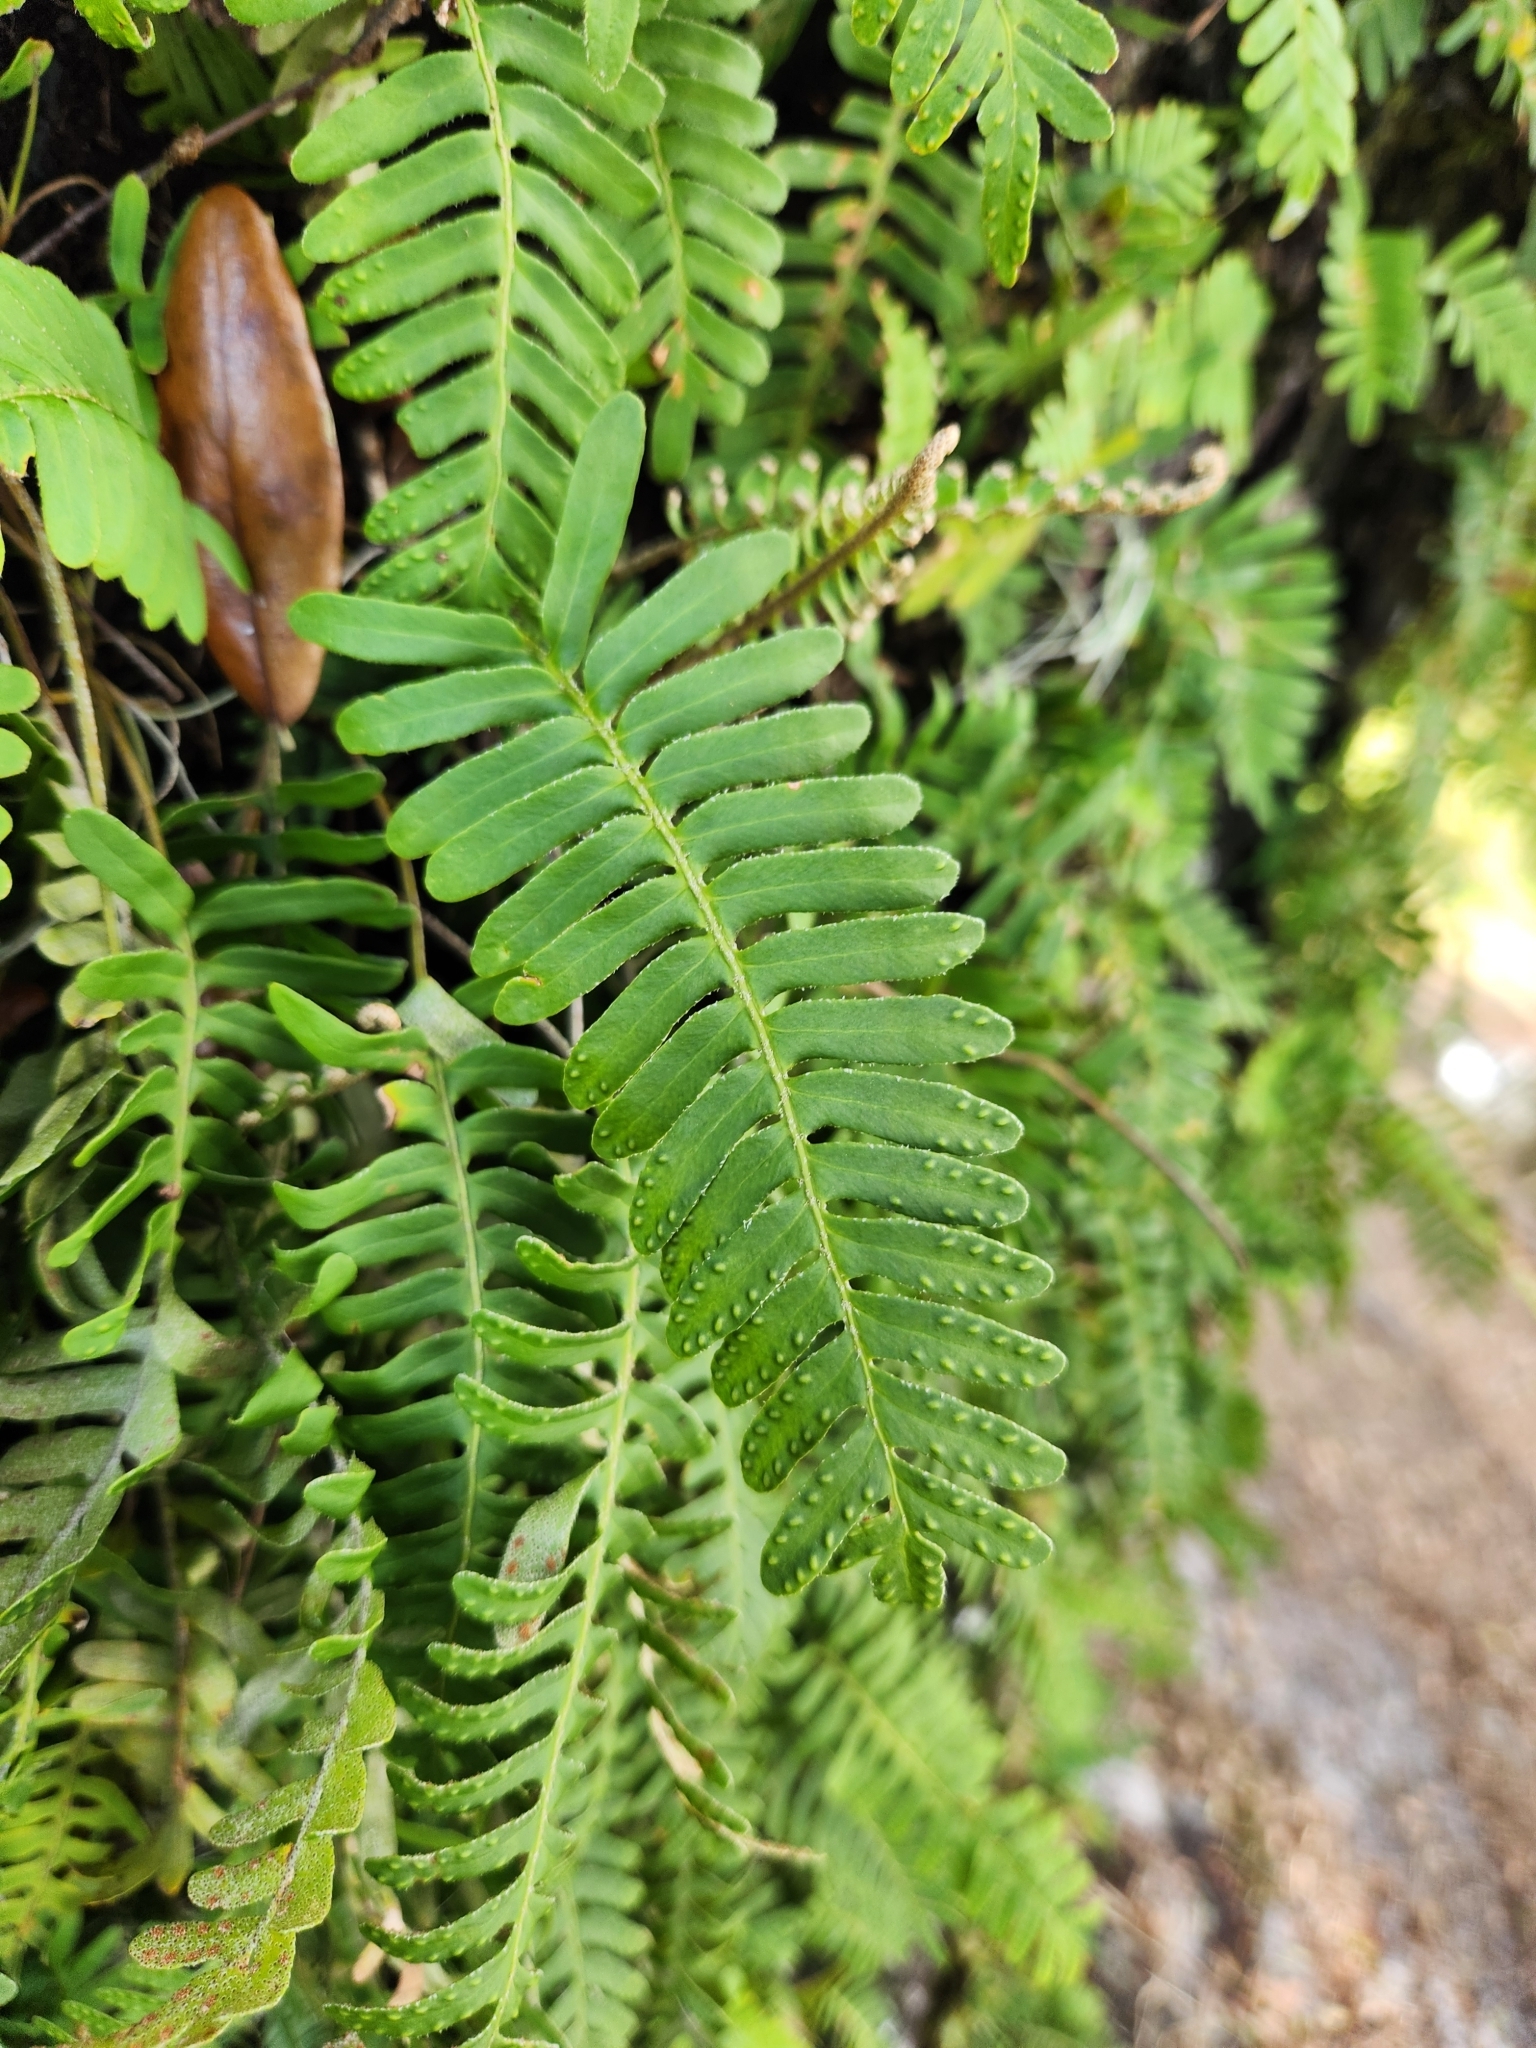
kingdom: Plantae
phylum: Tracheophyta
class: Polypodiopsida
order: Polypodiales
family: Polypodiaceae
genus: Pleopeltis
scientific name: Pleopeltis michauxiana
